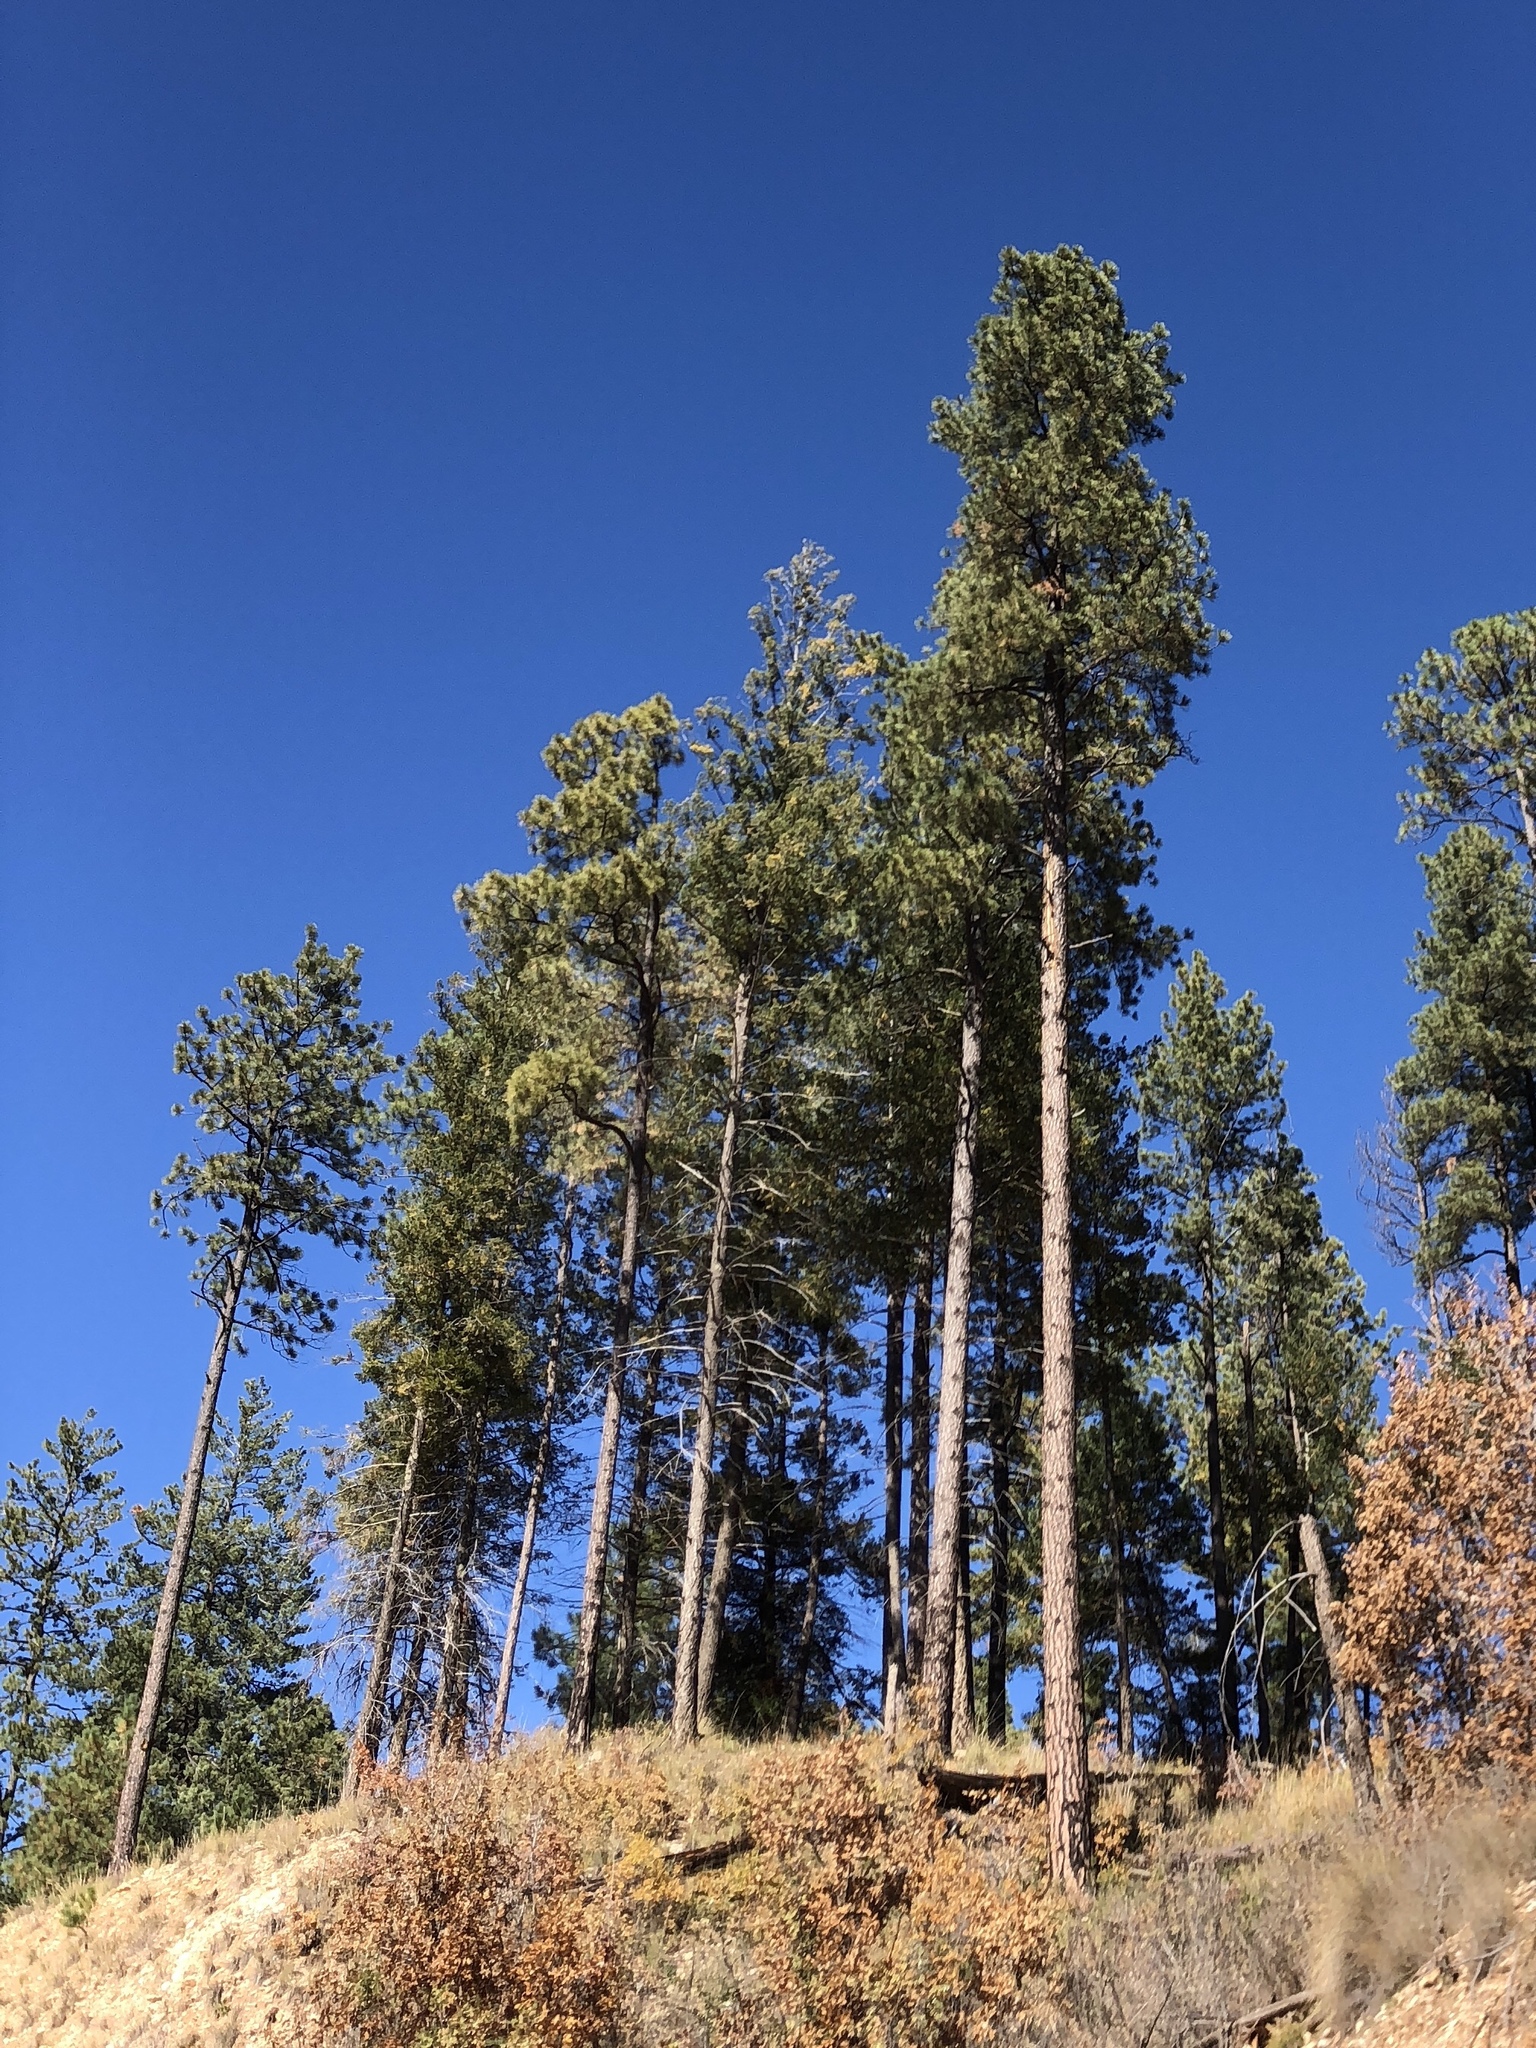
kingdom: Plantae
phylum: Tracheophyta
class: Pinopsida
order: Pinales
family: Pinaceae
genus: Pinus
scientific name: Pinus ponderosa
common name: Western yellow-pine
